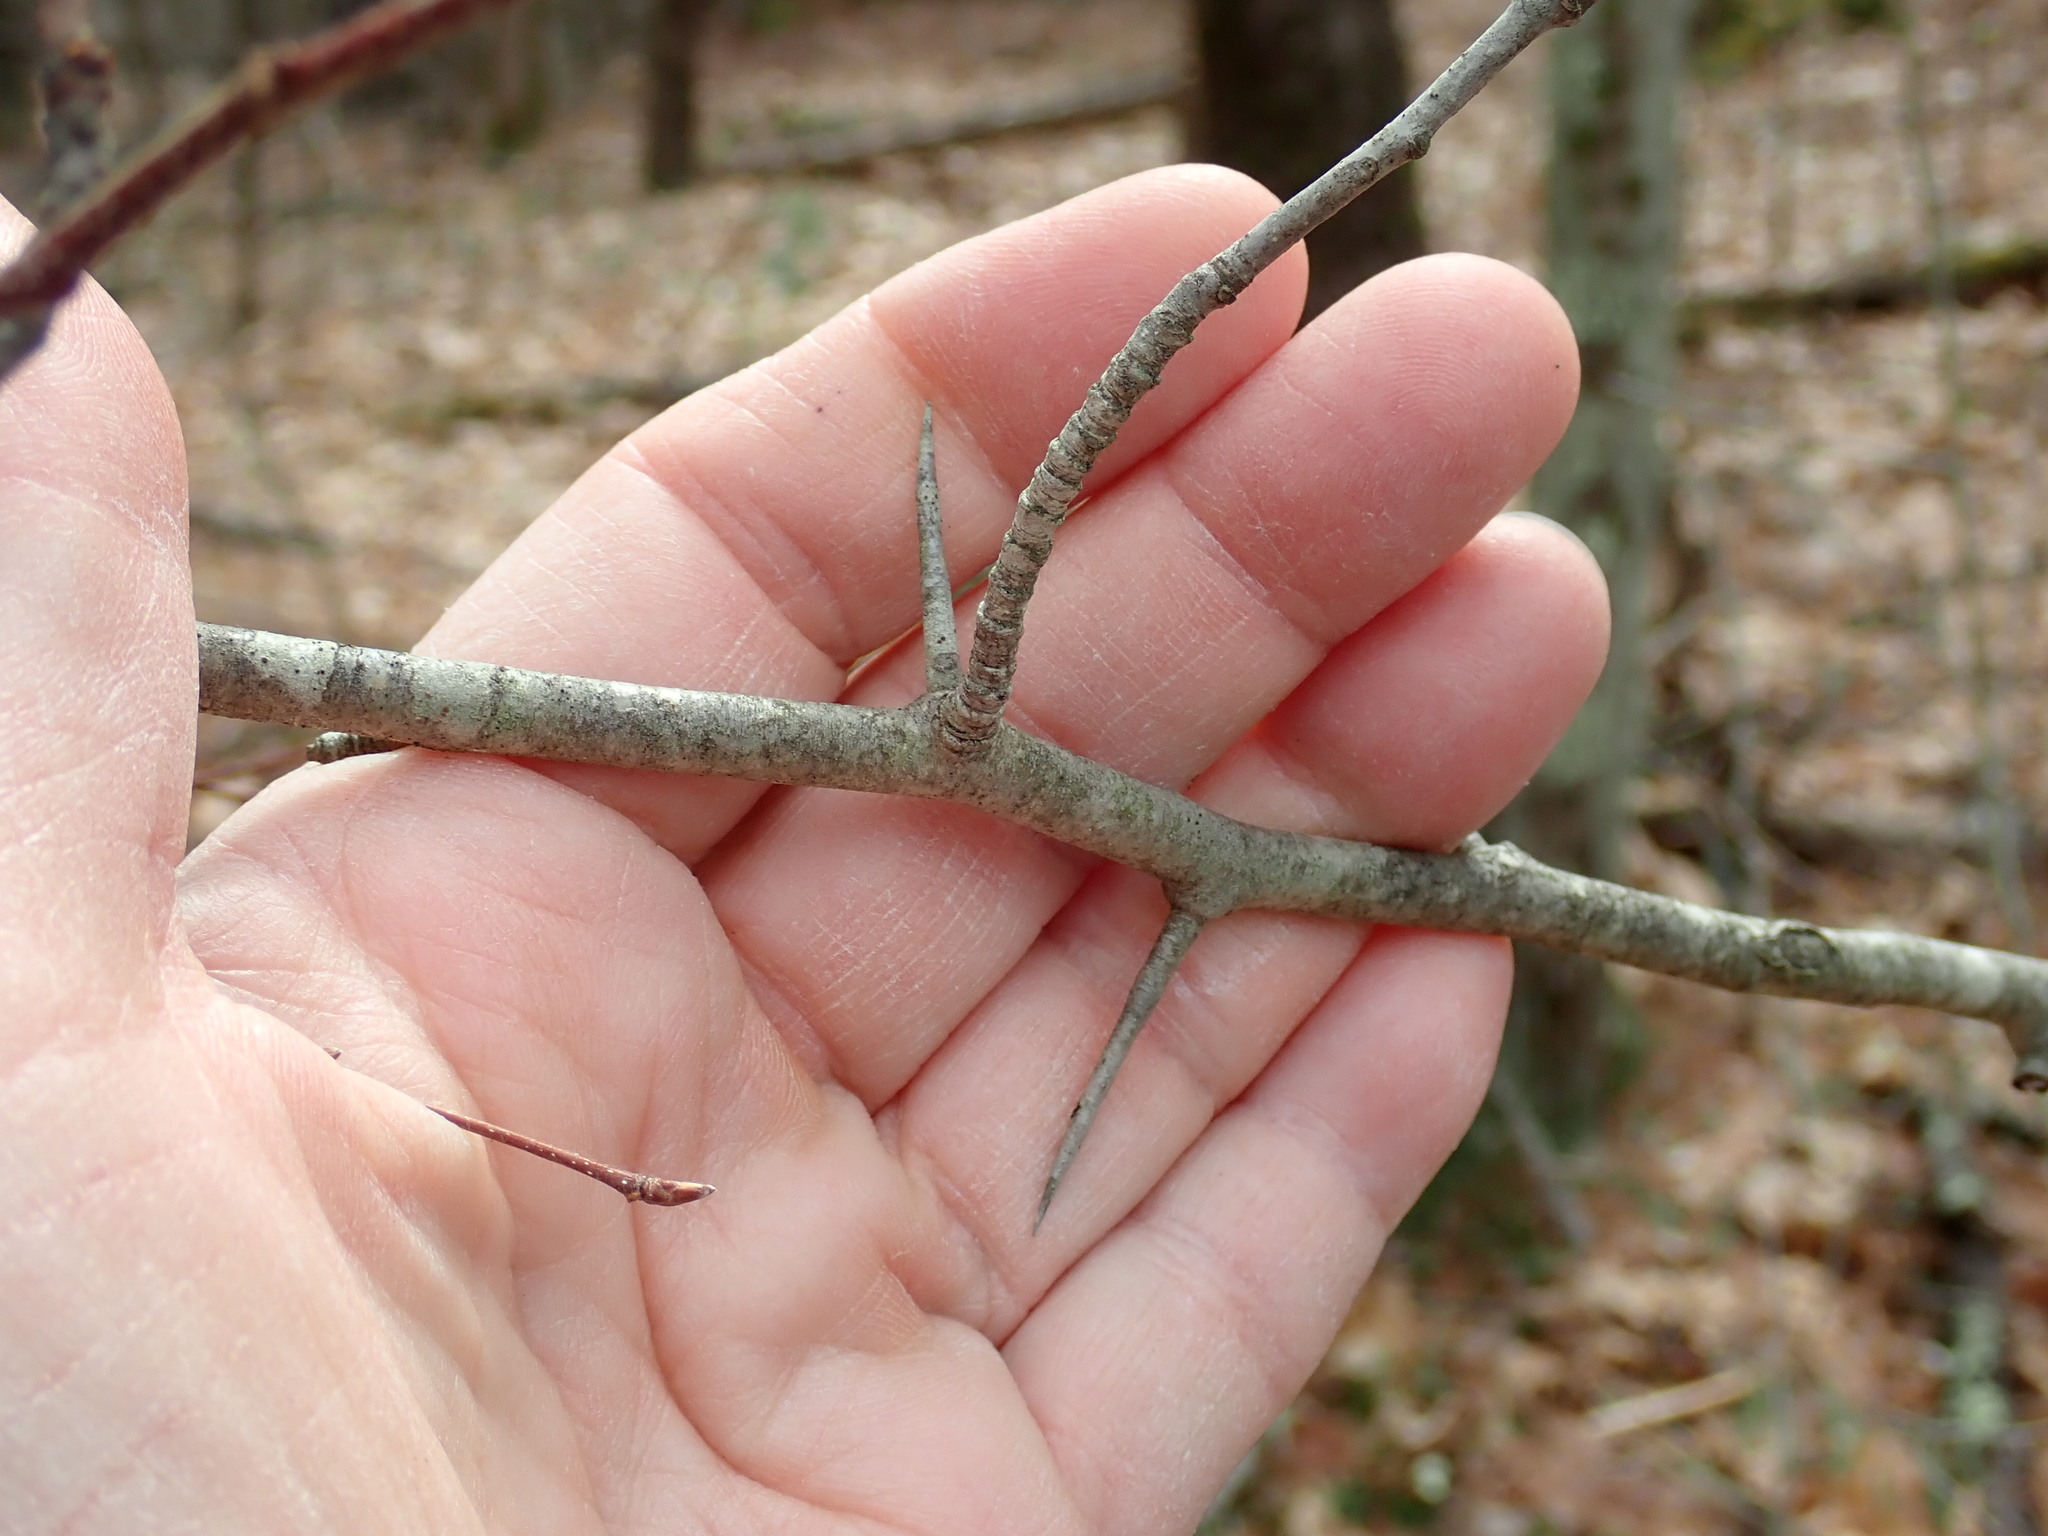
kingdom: Plantae
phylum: Tracheophyta
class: Magnoliopsida
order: Rosales
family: Rosaceae
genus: Crataegus
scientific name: Crataegus
